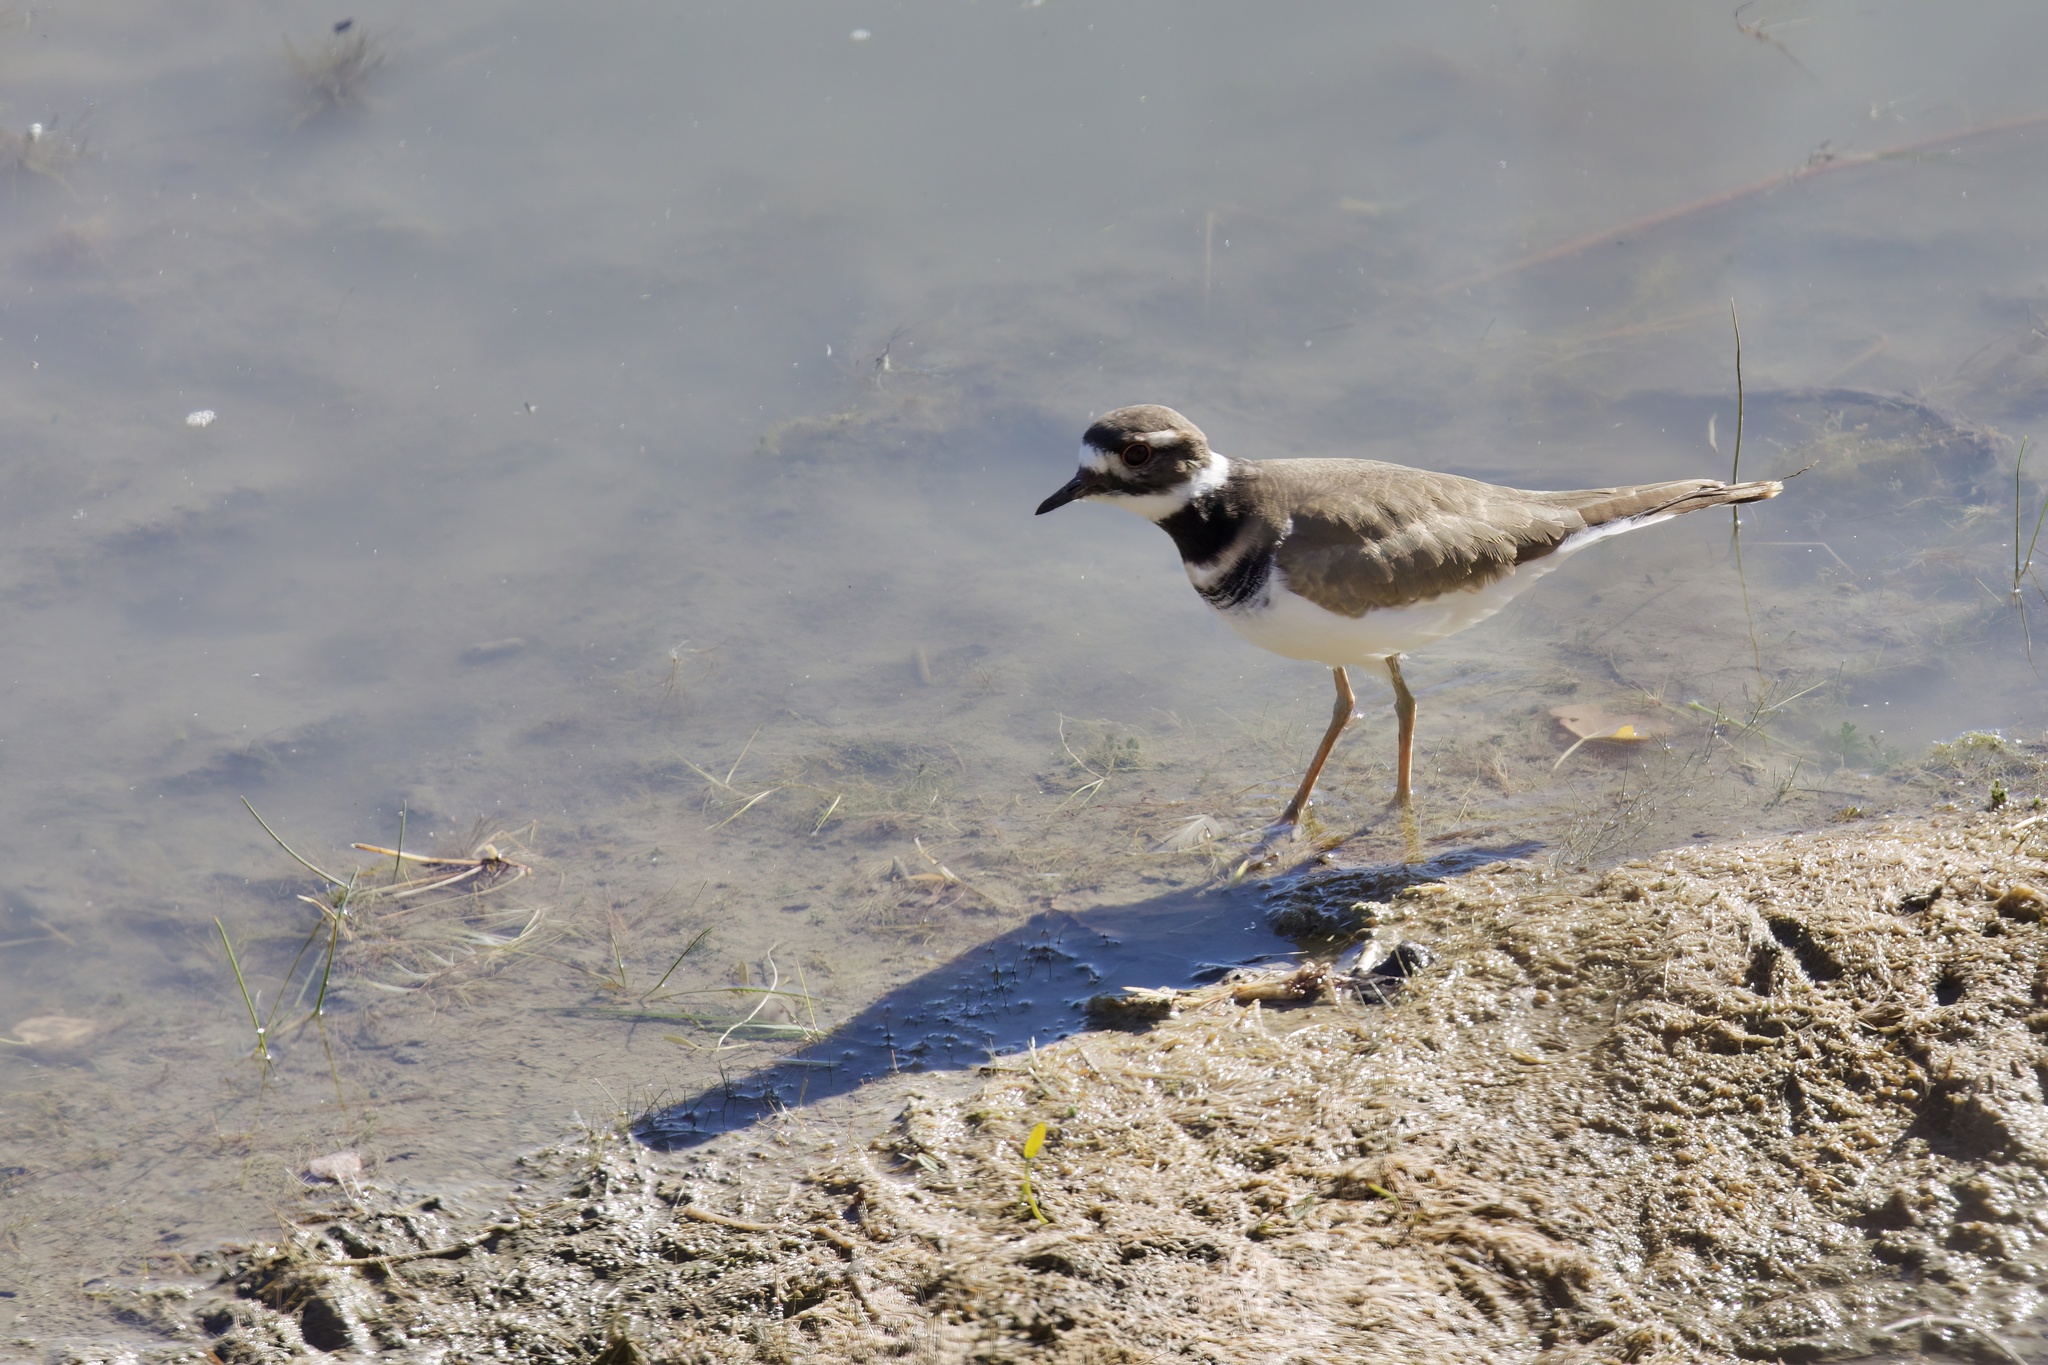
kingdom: Animalia
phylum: Chordata
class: Aves
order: Charadriiformes
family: Charadriidae
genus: Charadrius
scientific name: Charadrius vociferus
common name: Killdeer
